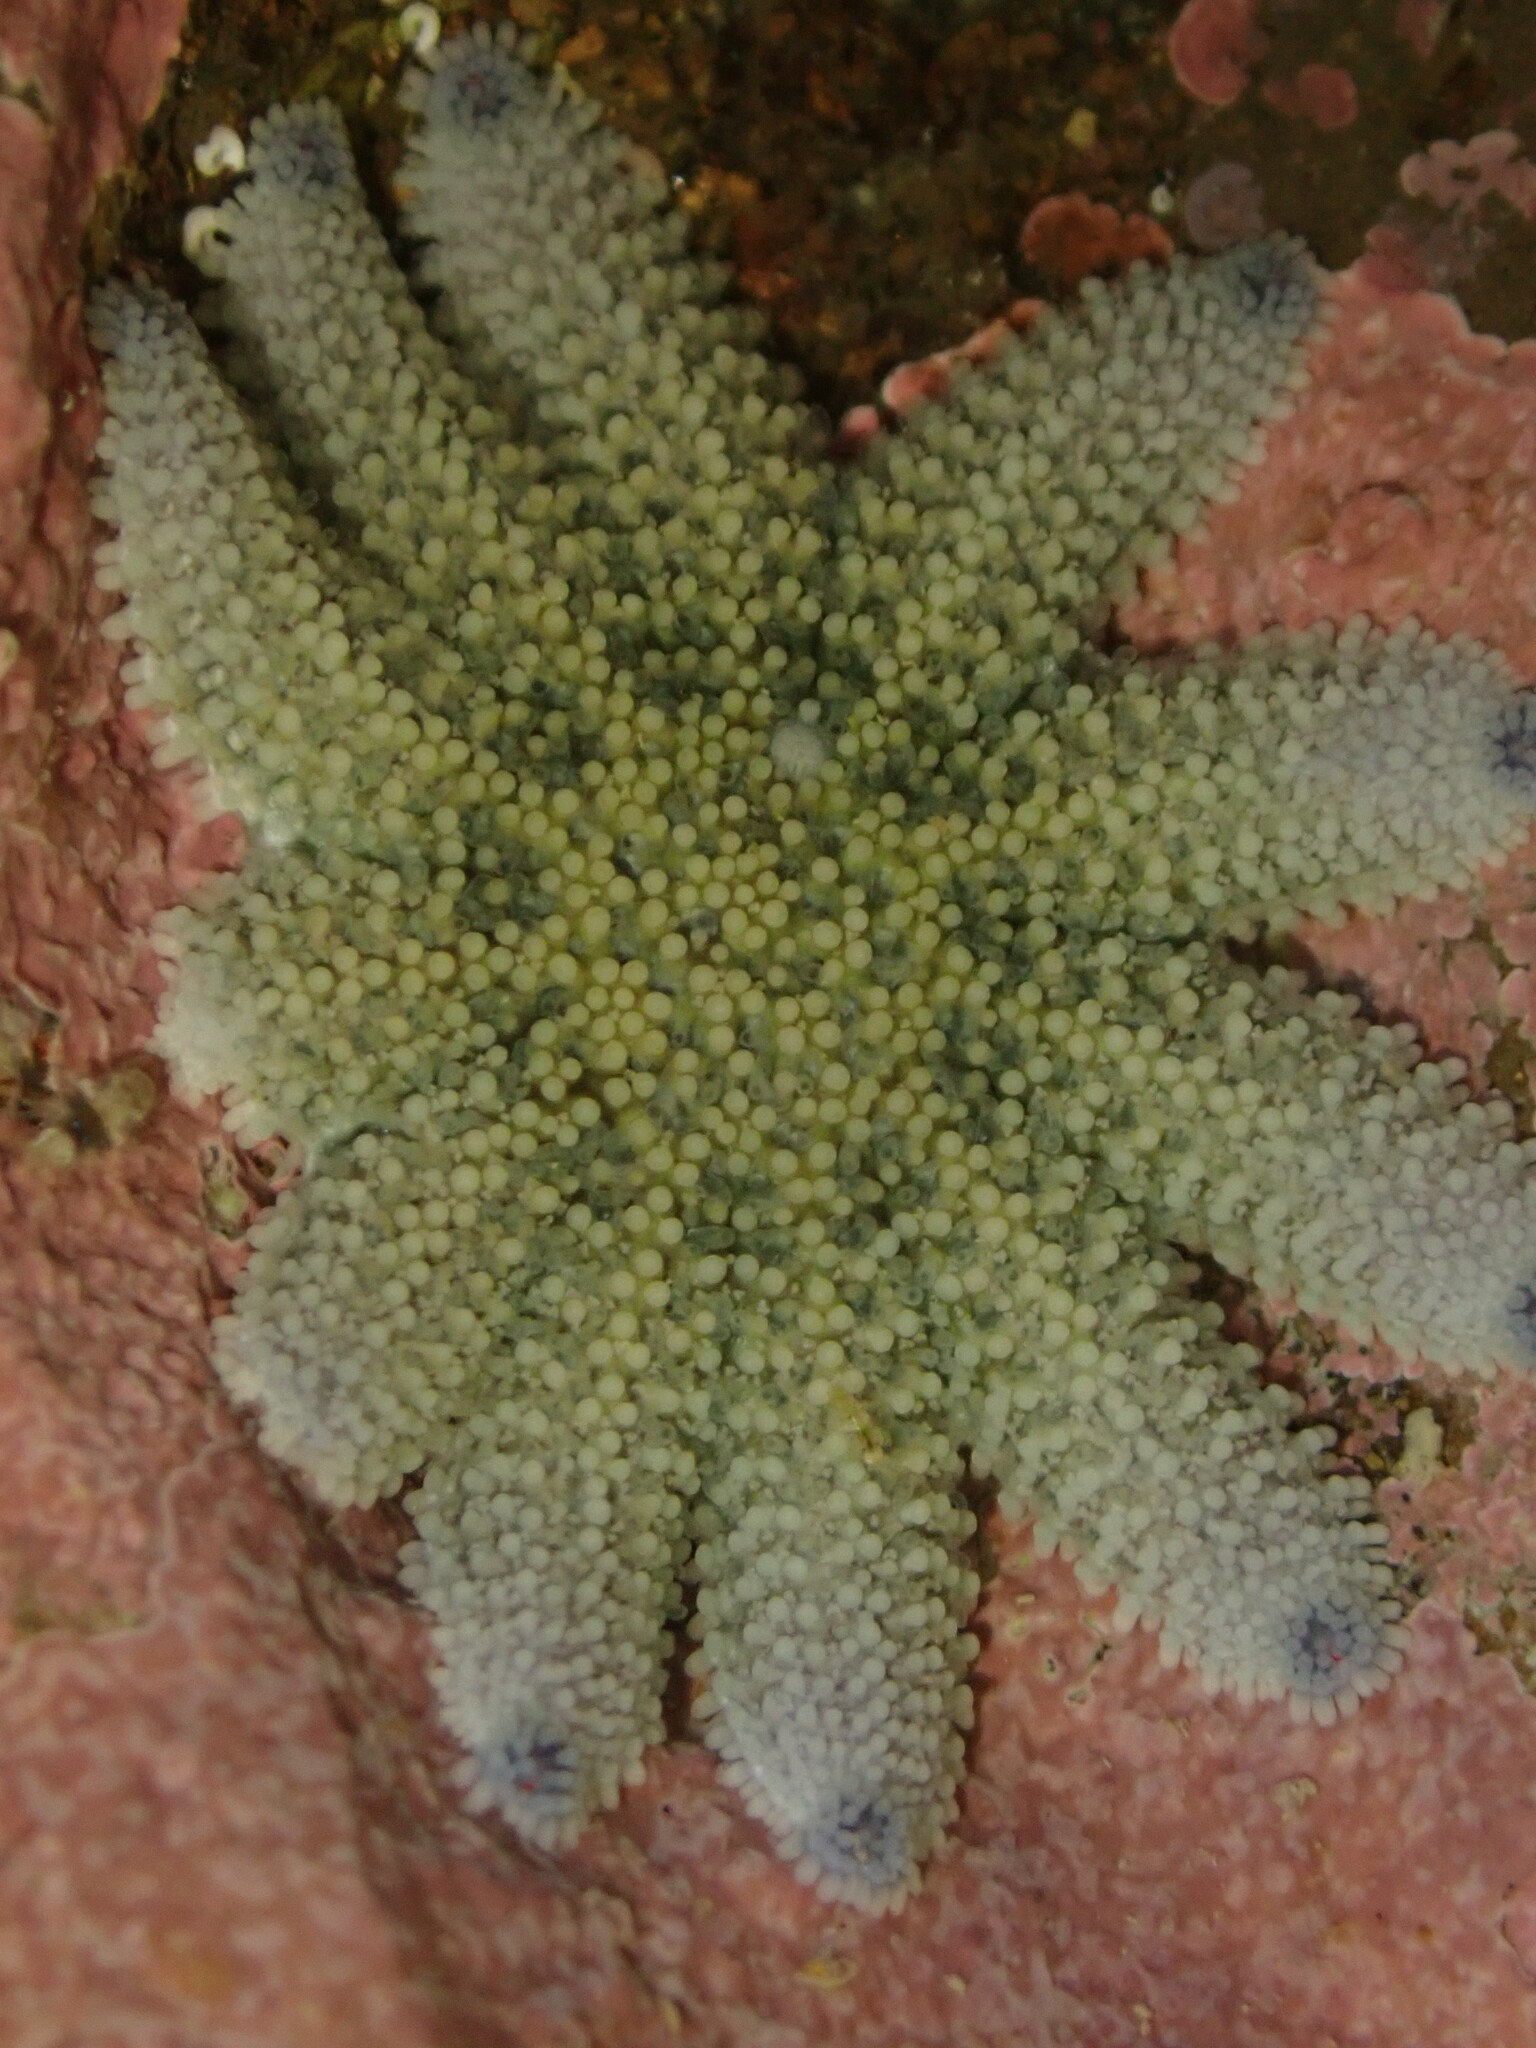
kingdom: Animalia
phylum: Echinodermata
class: Asteroidea
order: Forcipulatida
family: Stichasteridae
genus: Stichaster
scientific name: Stichaster australis
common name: Reef starfish
